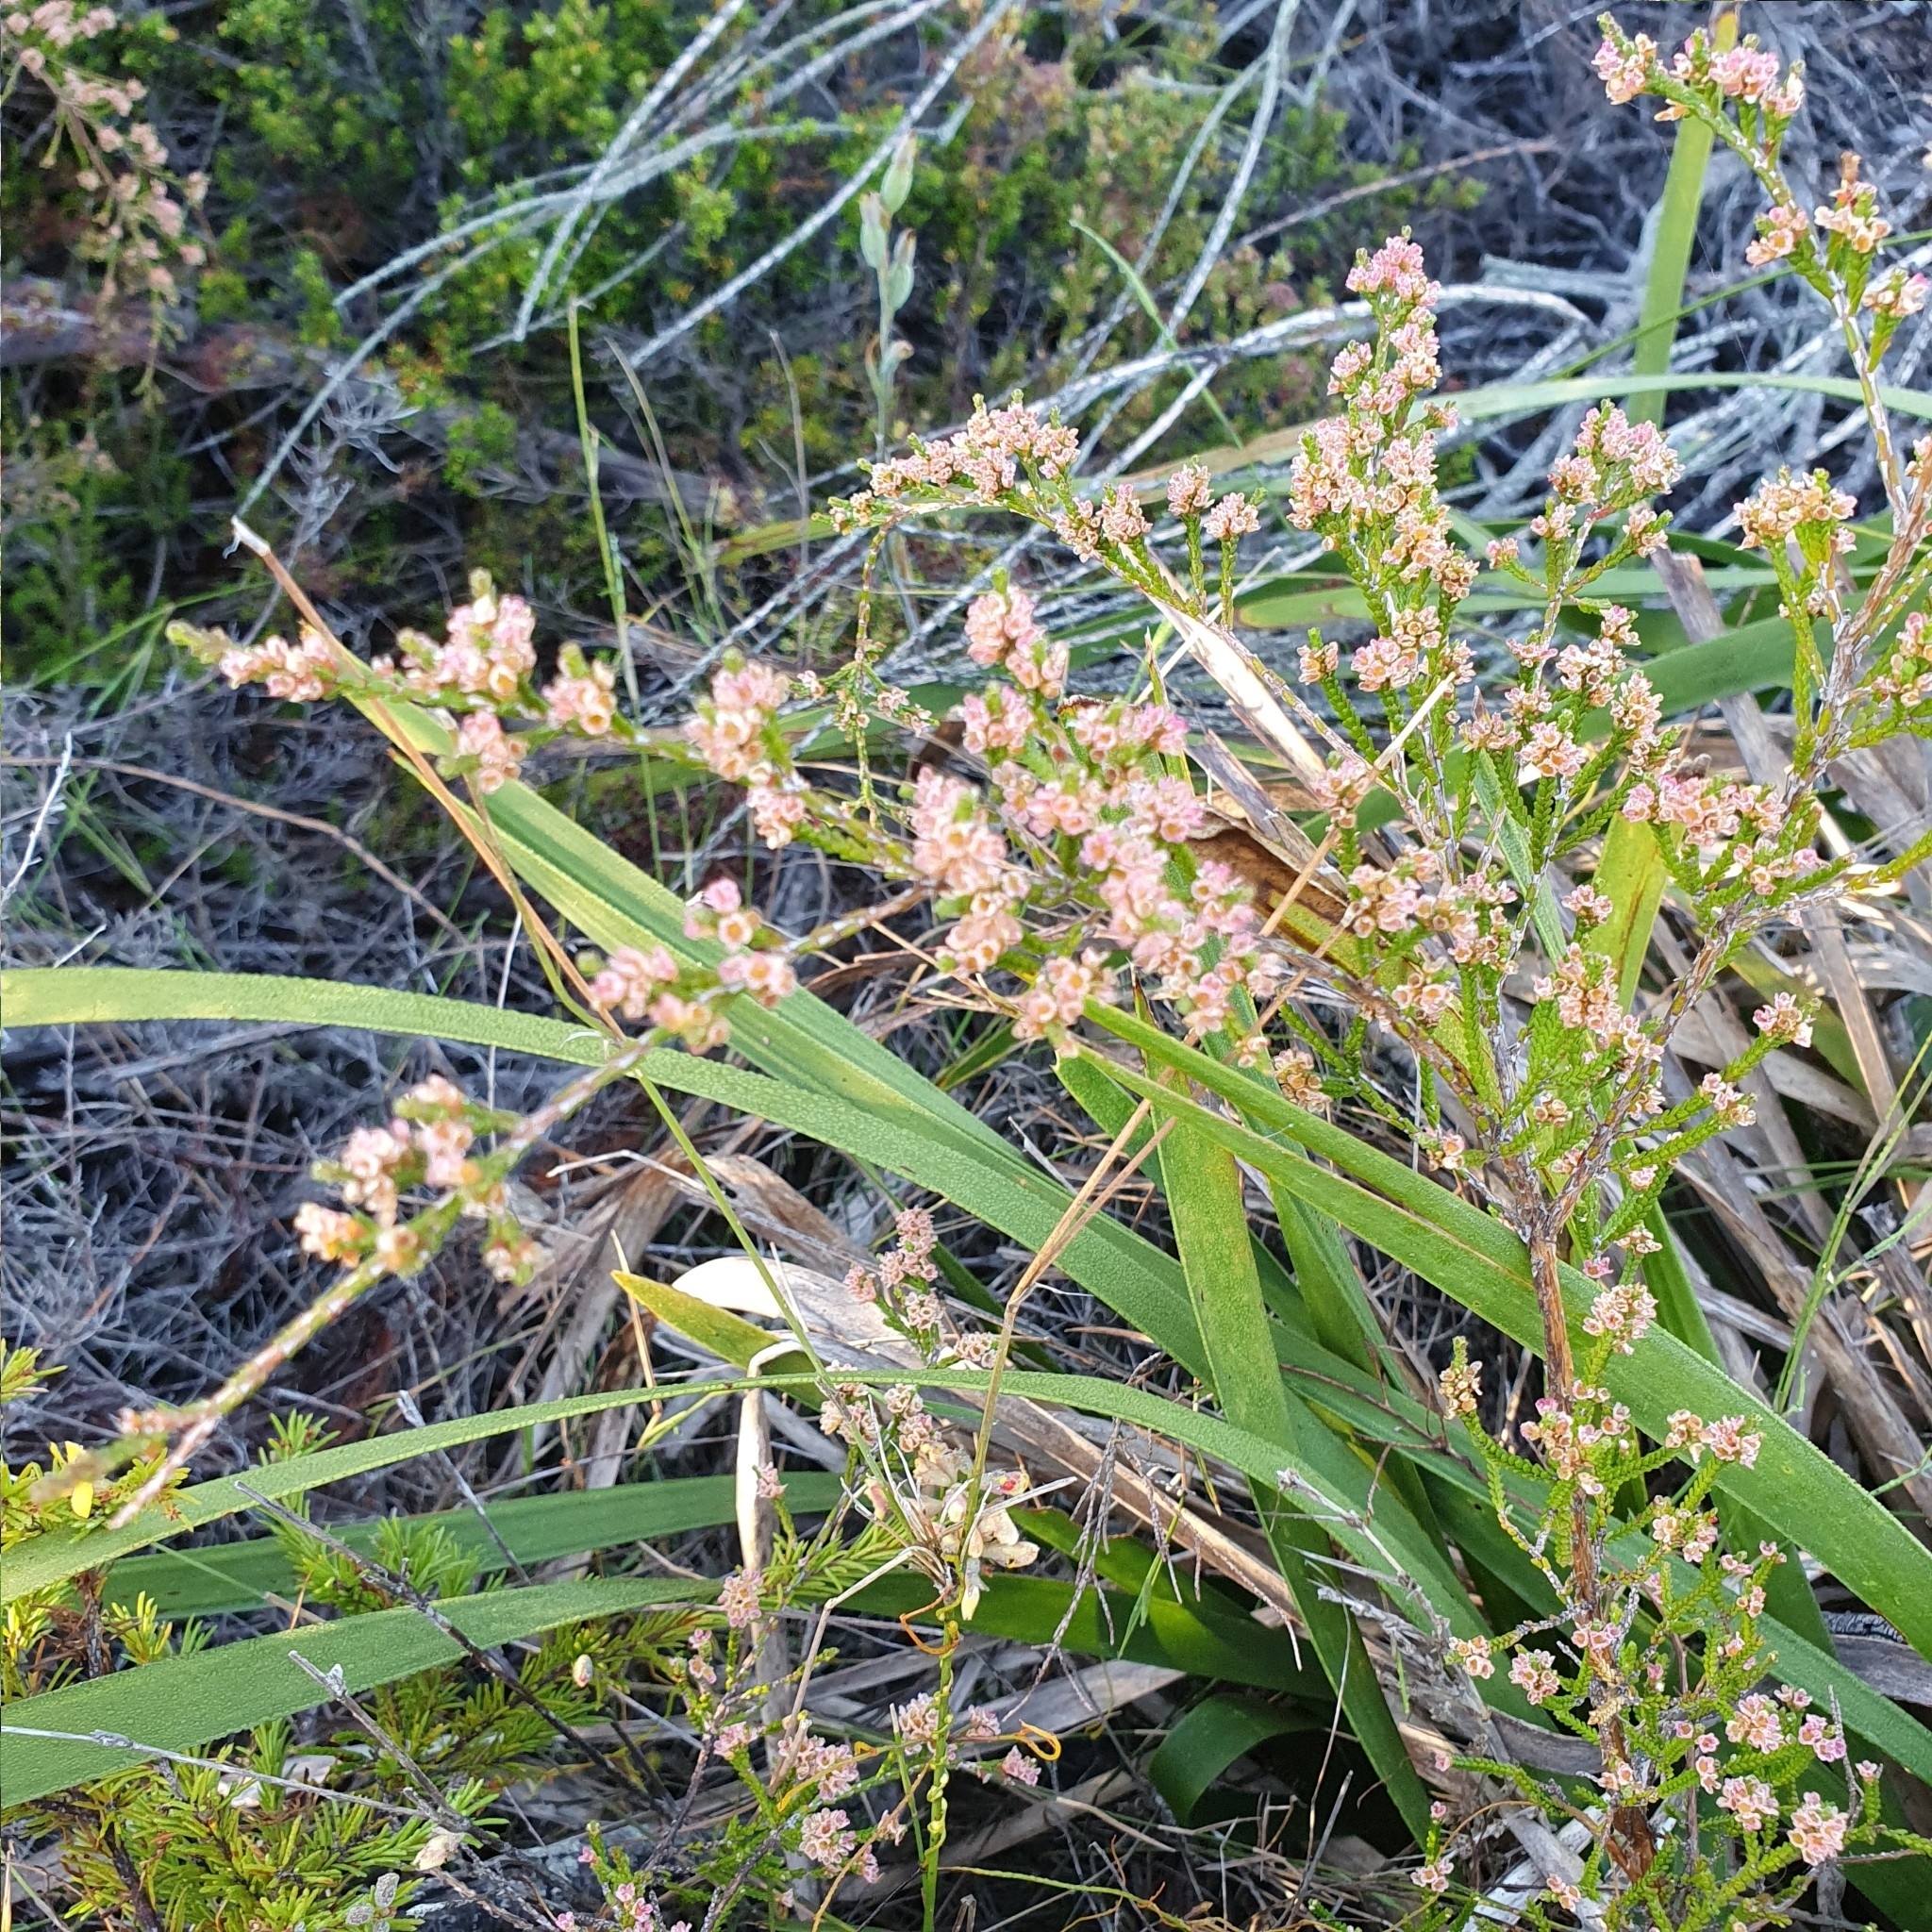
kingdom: Plantae
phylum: Tracheophyta
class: Magnoliopsida
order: Myrtales
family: Myrtaceae
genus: Micromyrtus
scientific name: Micromyrtus ciliata
